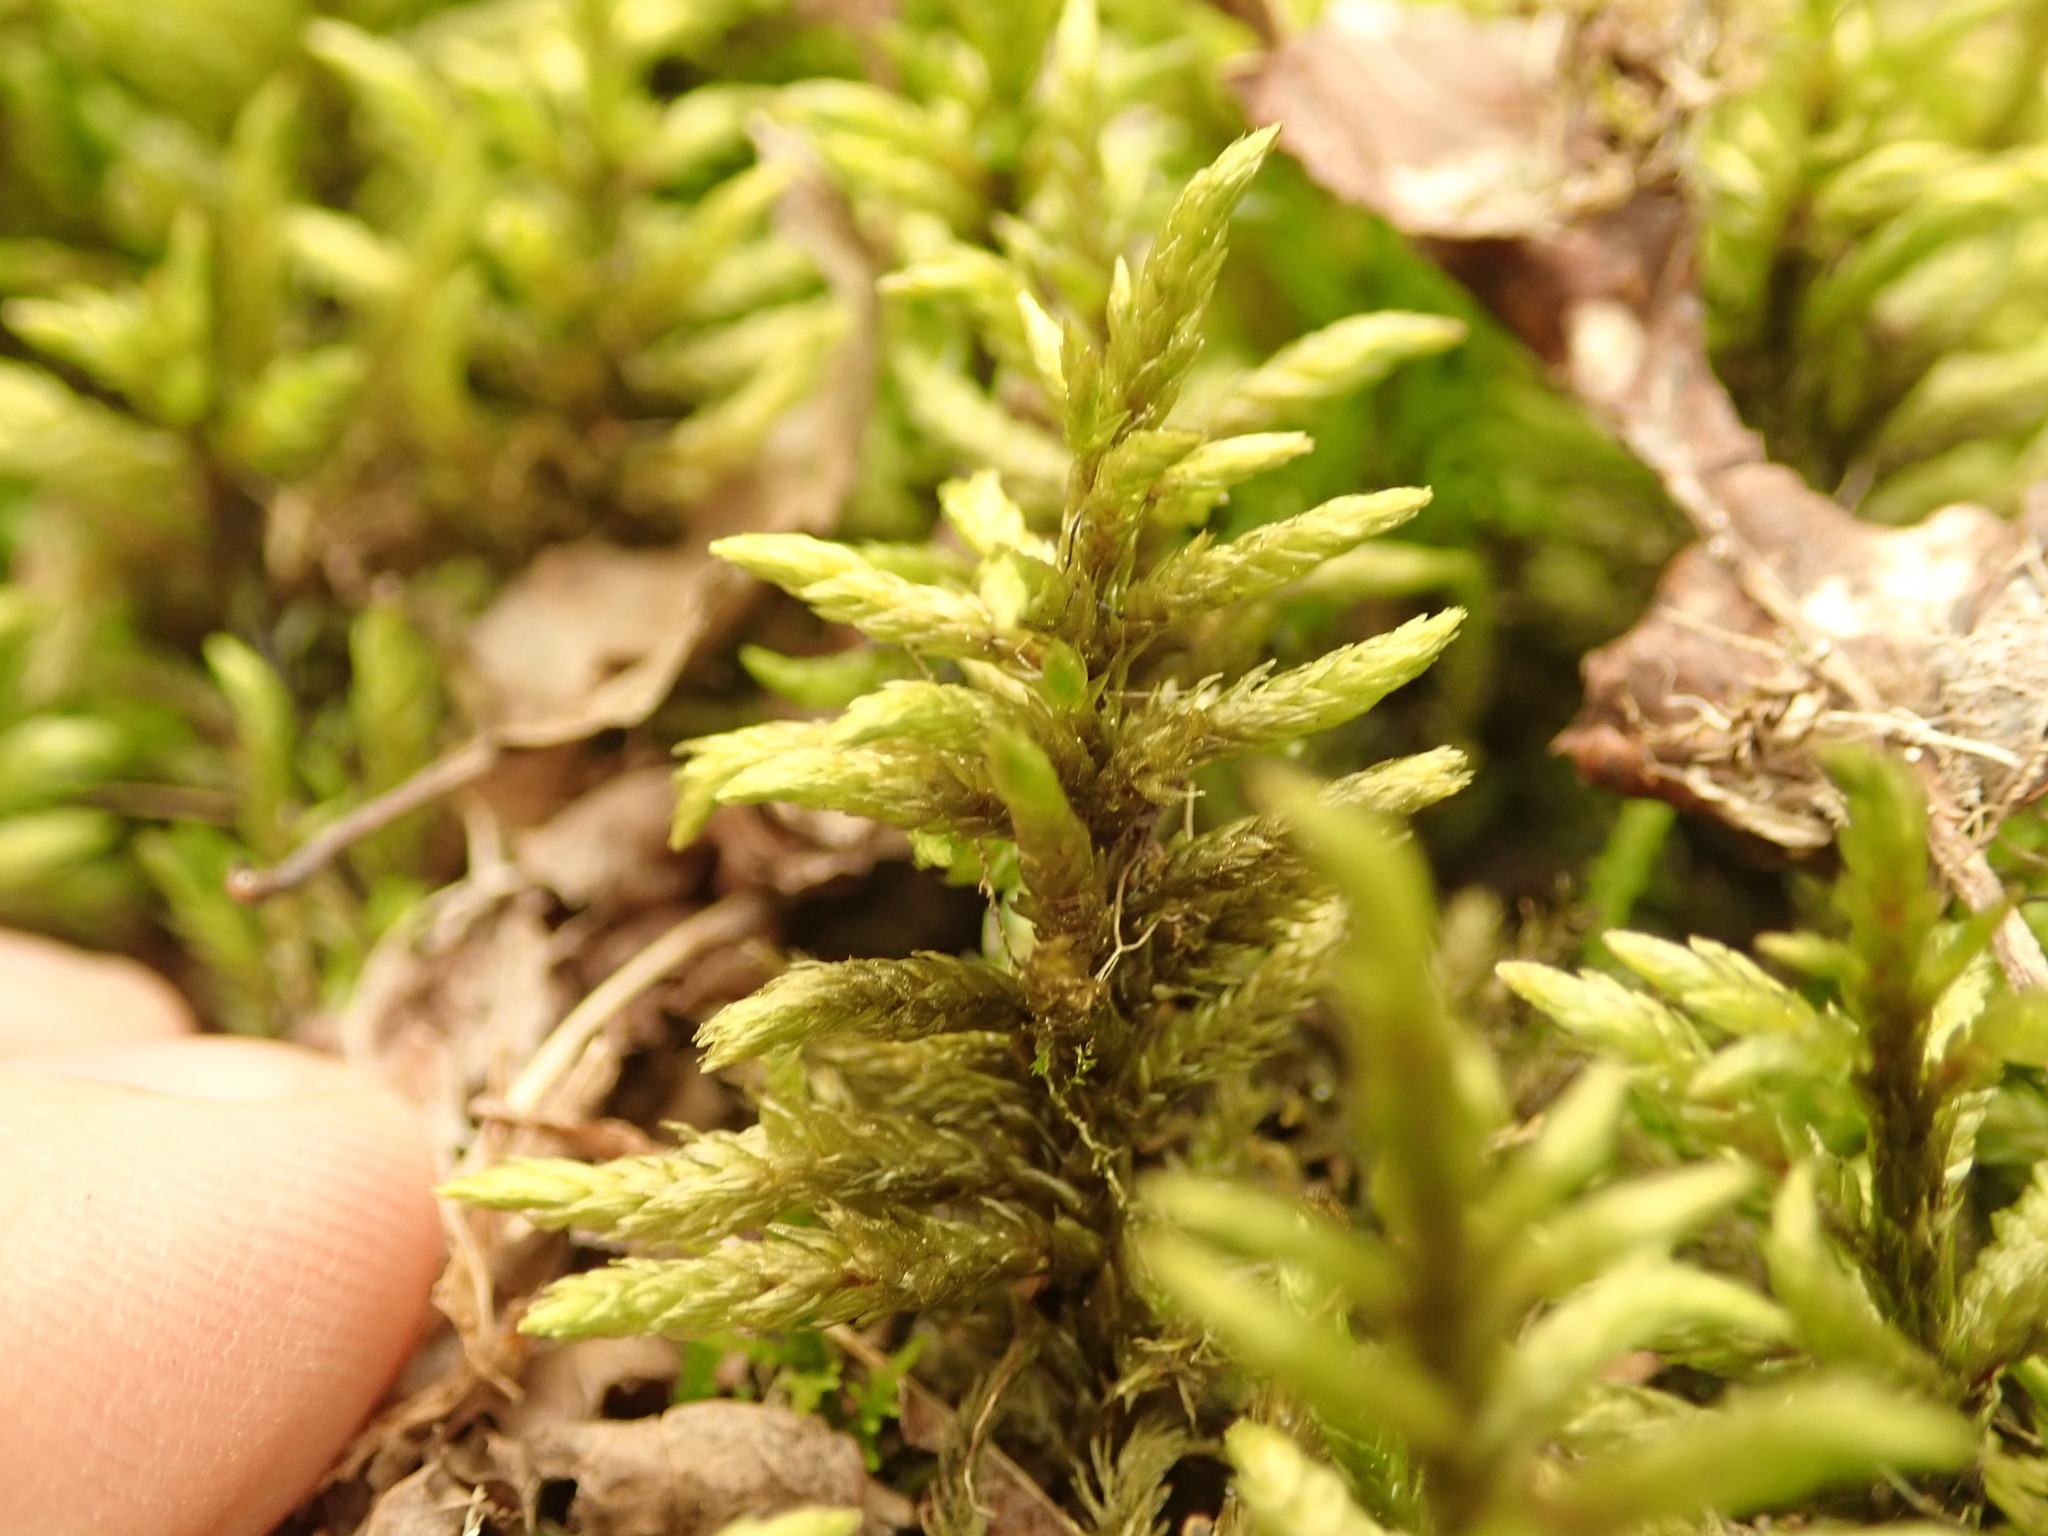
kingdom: Plantae
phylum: Bryophyta
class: Bryopsida
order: Hypnales
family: Hylocomiaceae
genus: Pleurozium
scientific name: Pleurozium schreberi
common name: Red-stemmed feather moss
